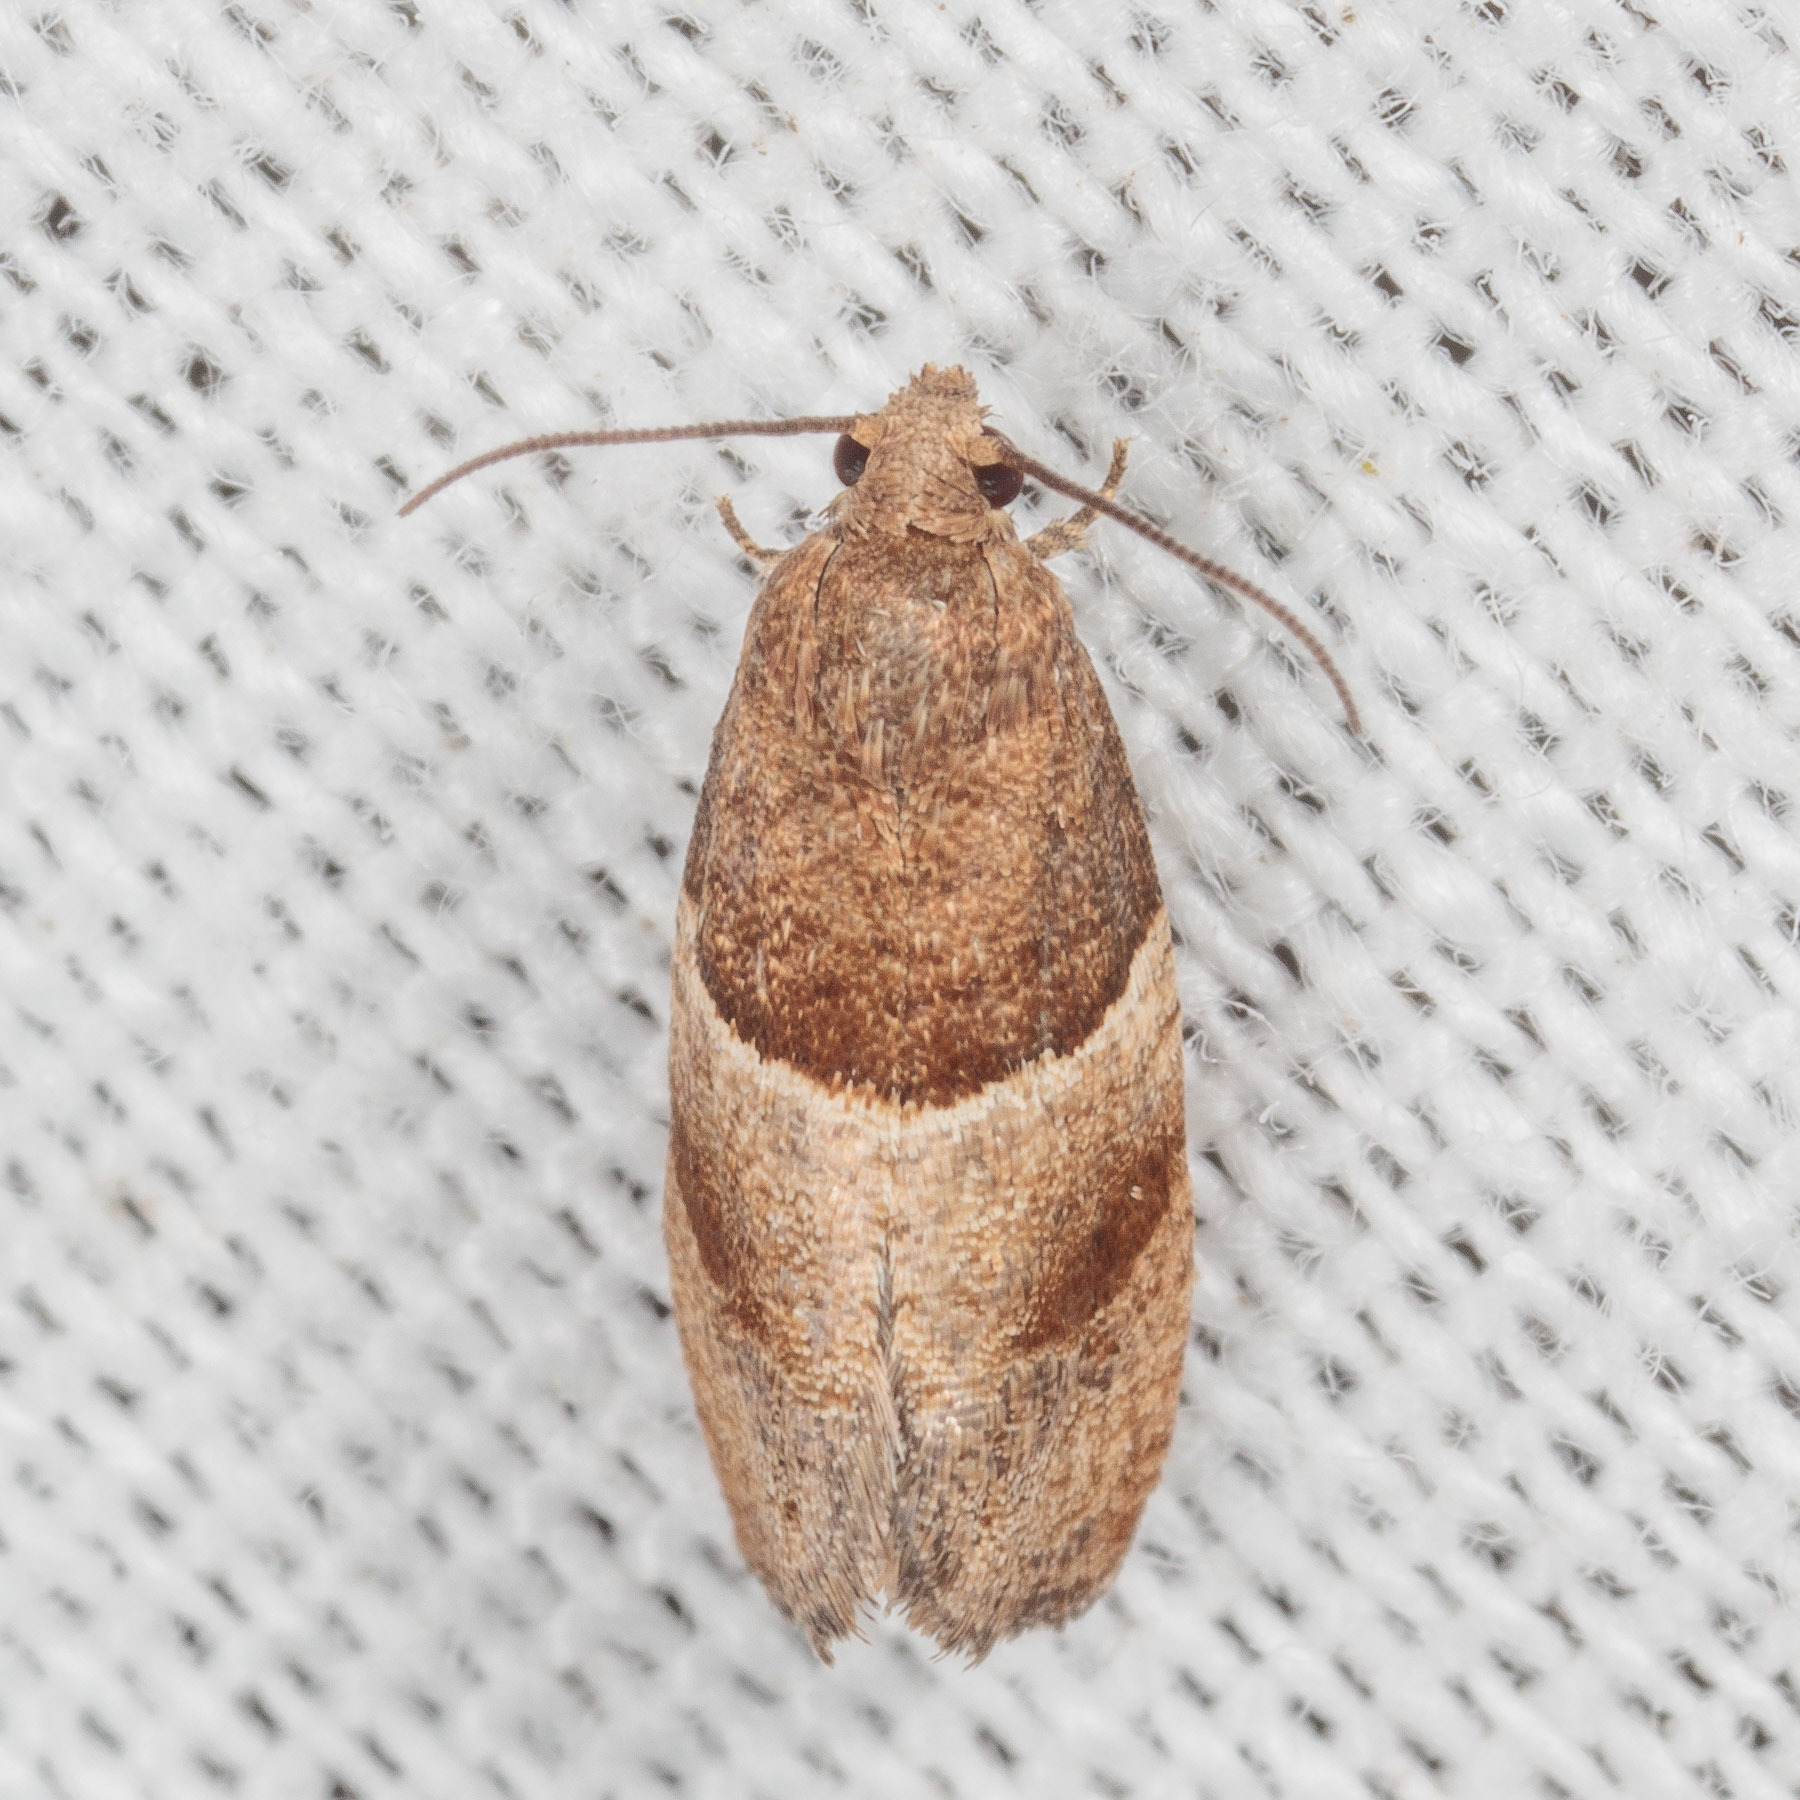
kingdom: Animalia
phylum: Arthropoda
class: Insecta
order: Lepidoptera
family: Tortricidae
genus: Larisa
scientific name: Larisa subsolana
